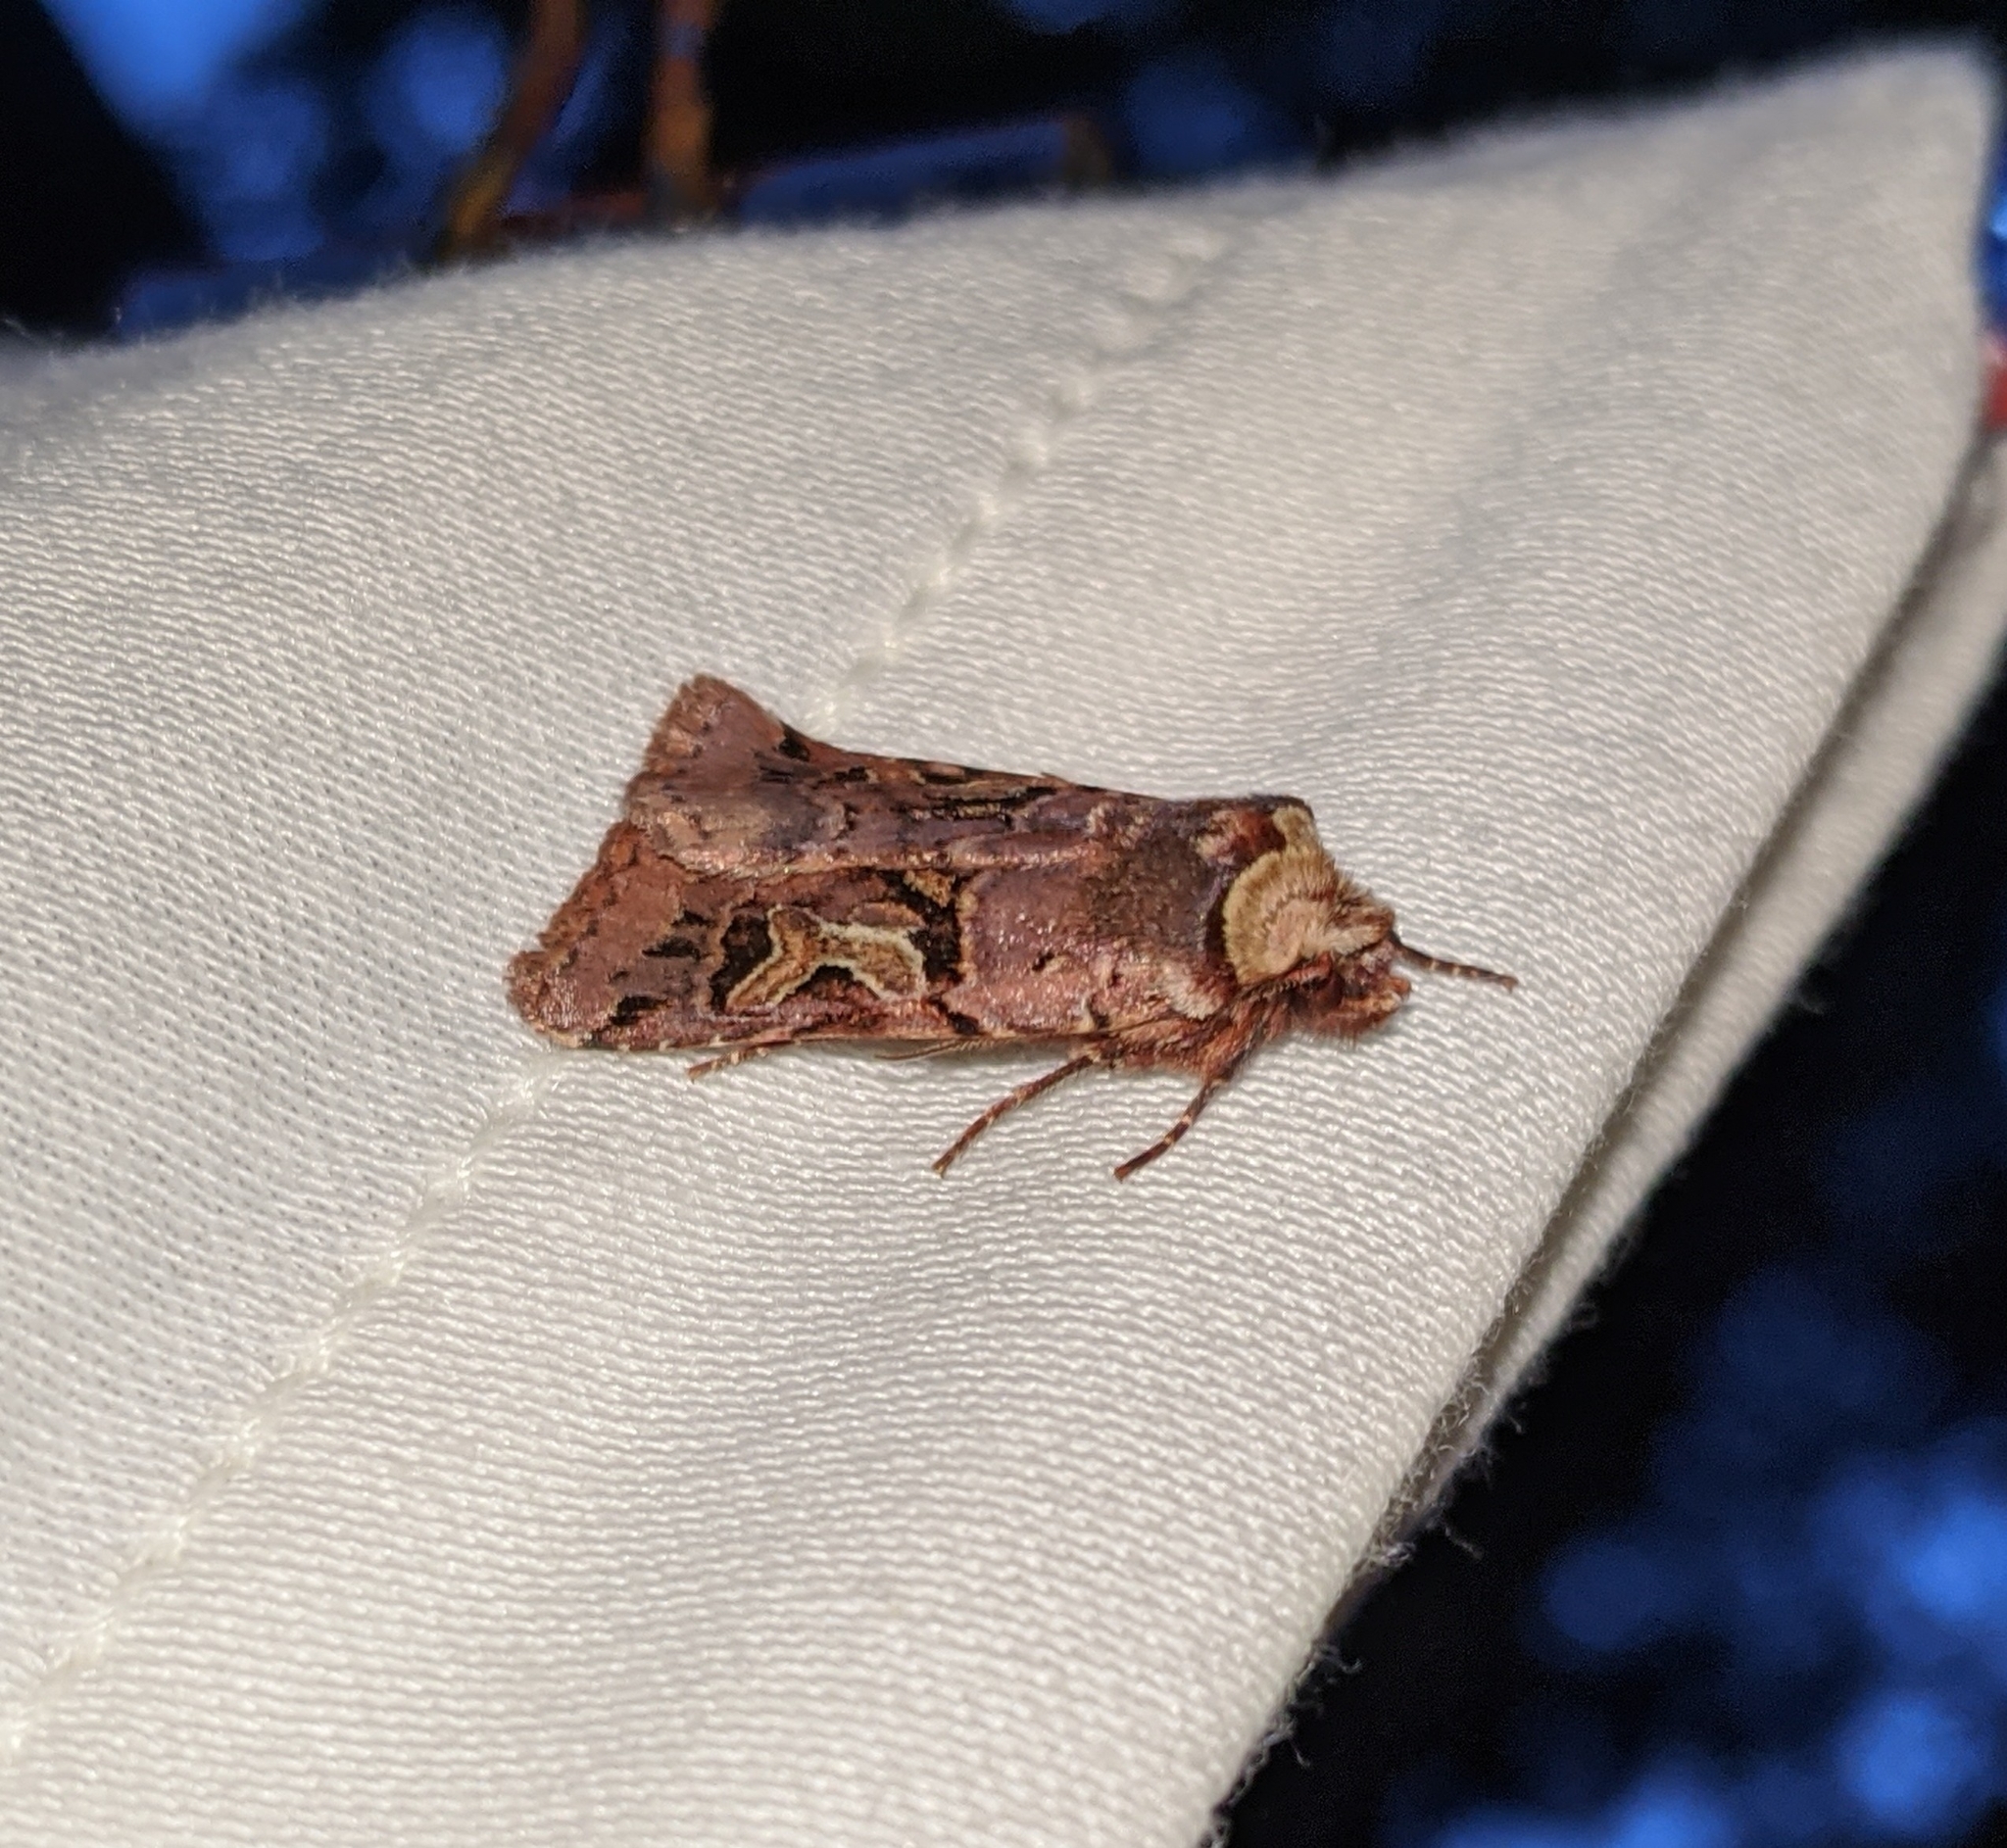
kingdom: Animalia
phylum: Arthropoda
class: Insecta
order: Lepidoptera
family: Noctuidae
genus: Cerastis
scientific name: Cerastis enigmatica
